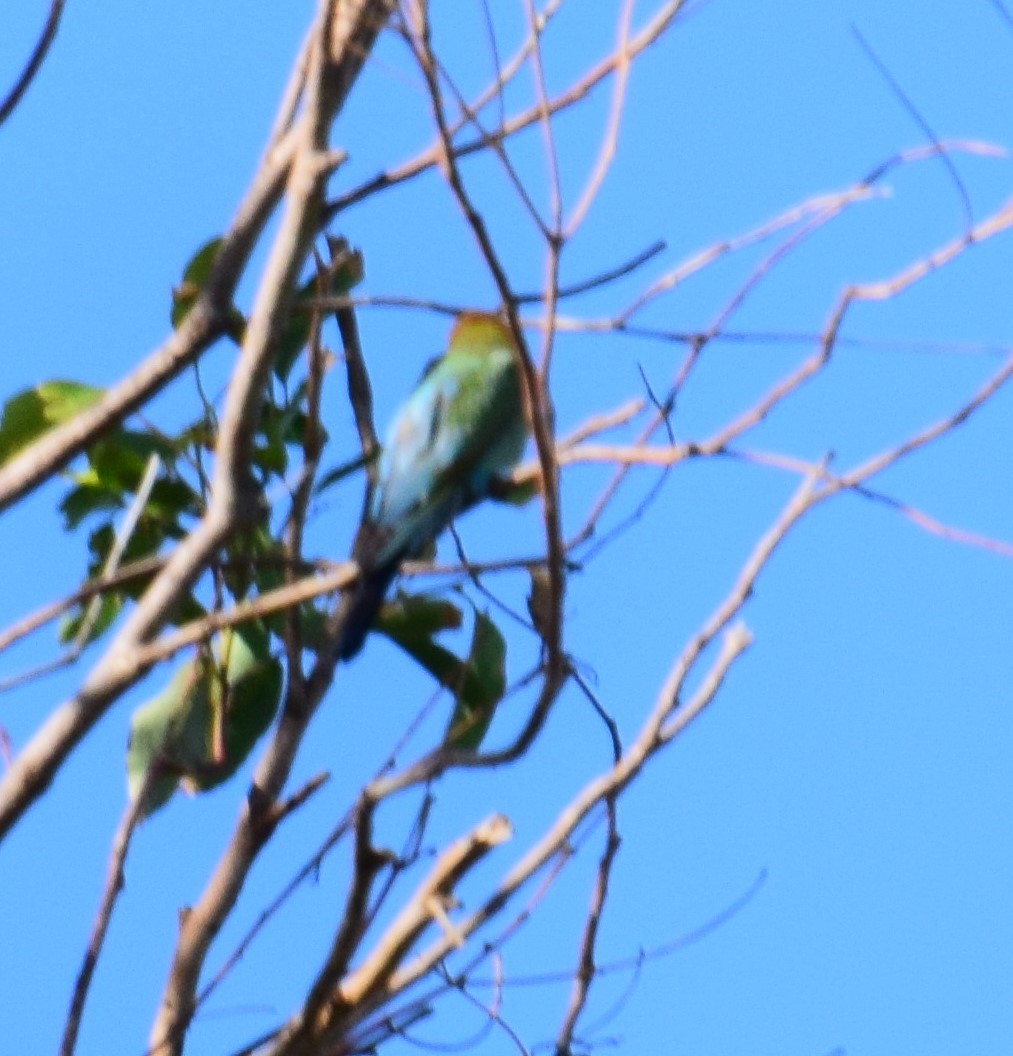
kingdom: Animalia
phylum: Chordata
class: Aves
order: Coraciiformes
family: Meropidae
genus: Merops
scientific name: Merops ornatus
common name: Rainbow bee-eater
